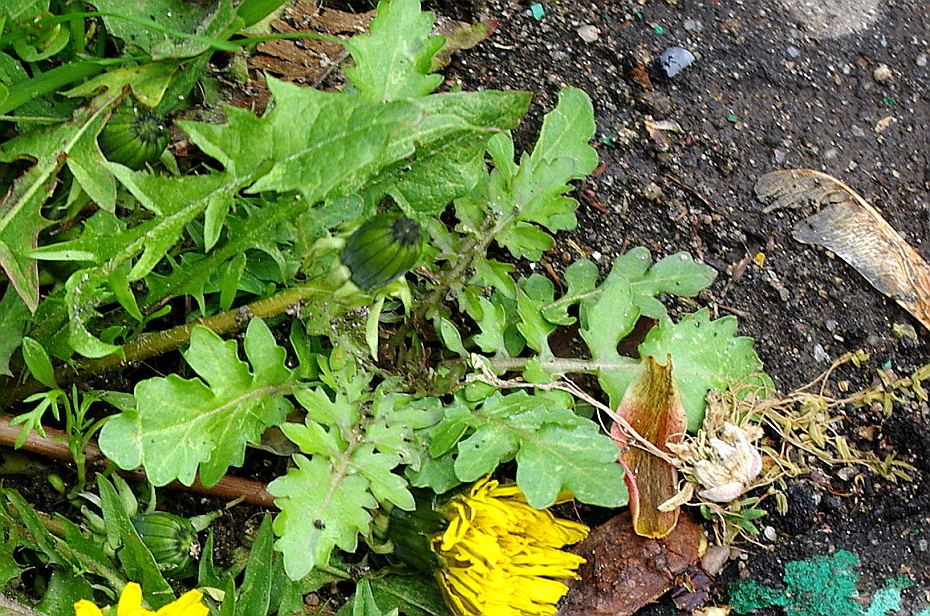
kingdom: Plantae
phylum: Tracheophyta
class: Magnoliopsida
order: Brassicales
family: Brassicaceae
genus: Rorippa
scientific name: Rorippa palustris
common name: Marsh yellow-cress
